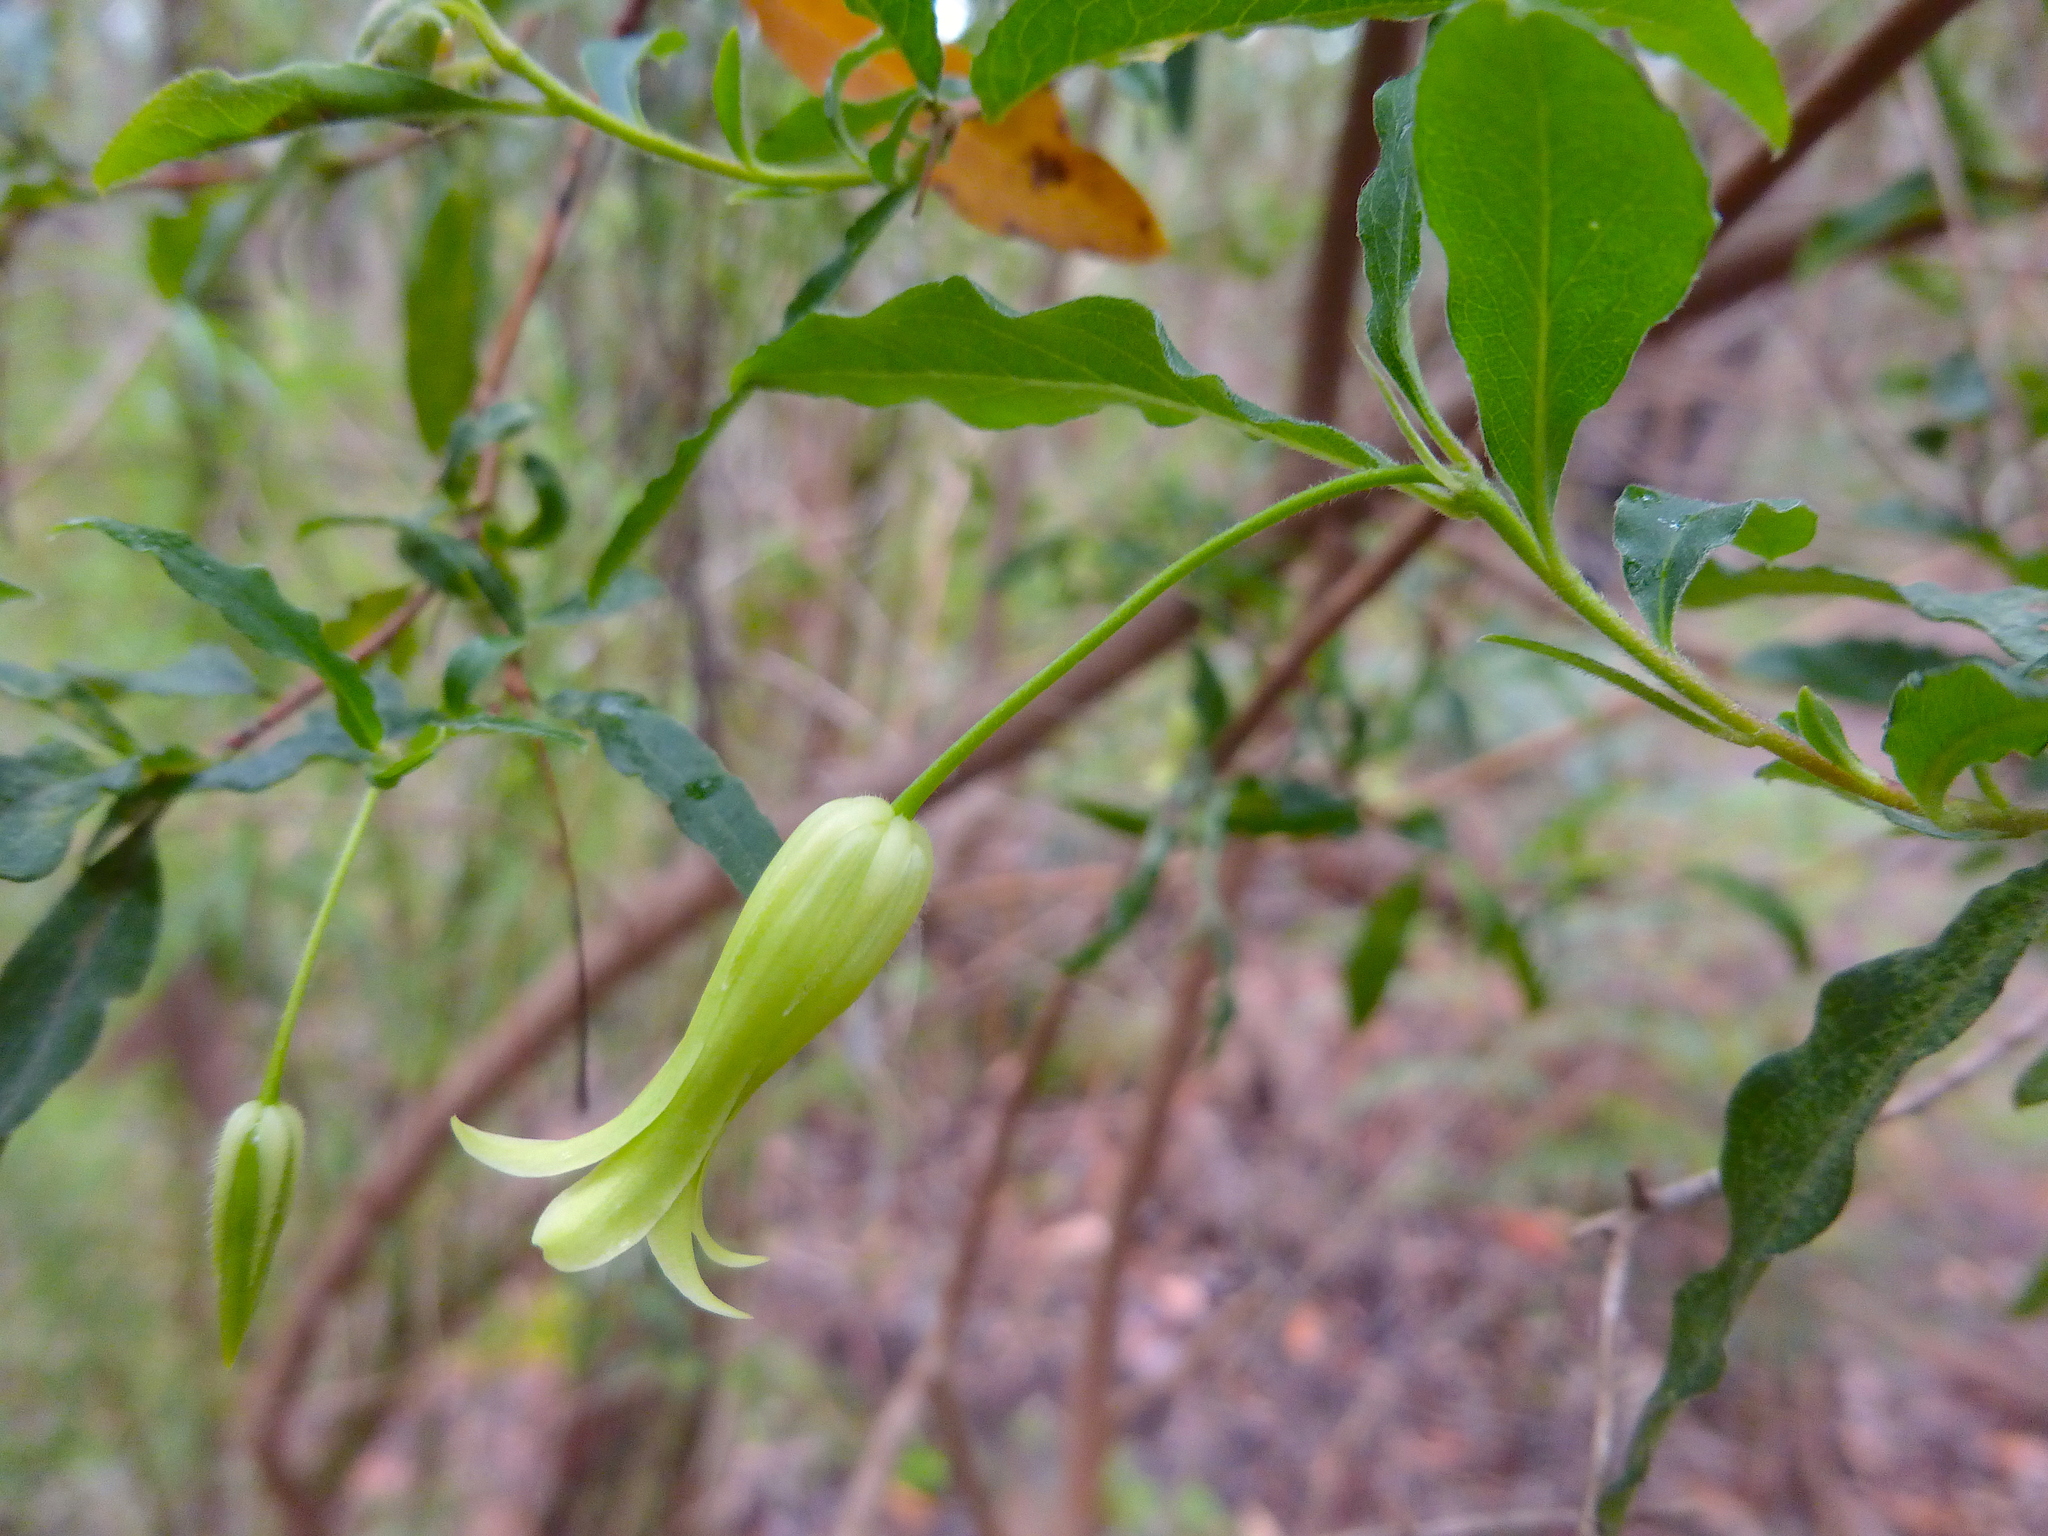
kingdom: Plantae
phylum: Tracheophyta
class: Magnoliopsida
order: Apiales
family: Pittosporaceae
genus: Billardiera
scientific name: Billardiera mutabilis
